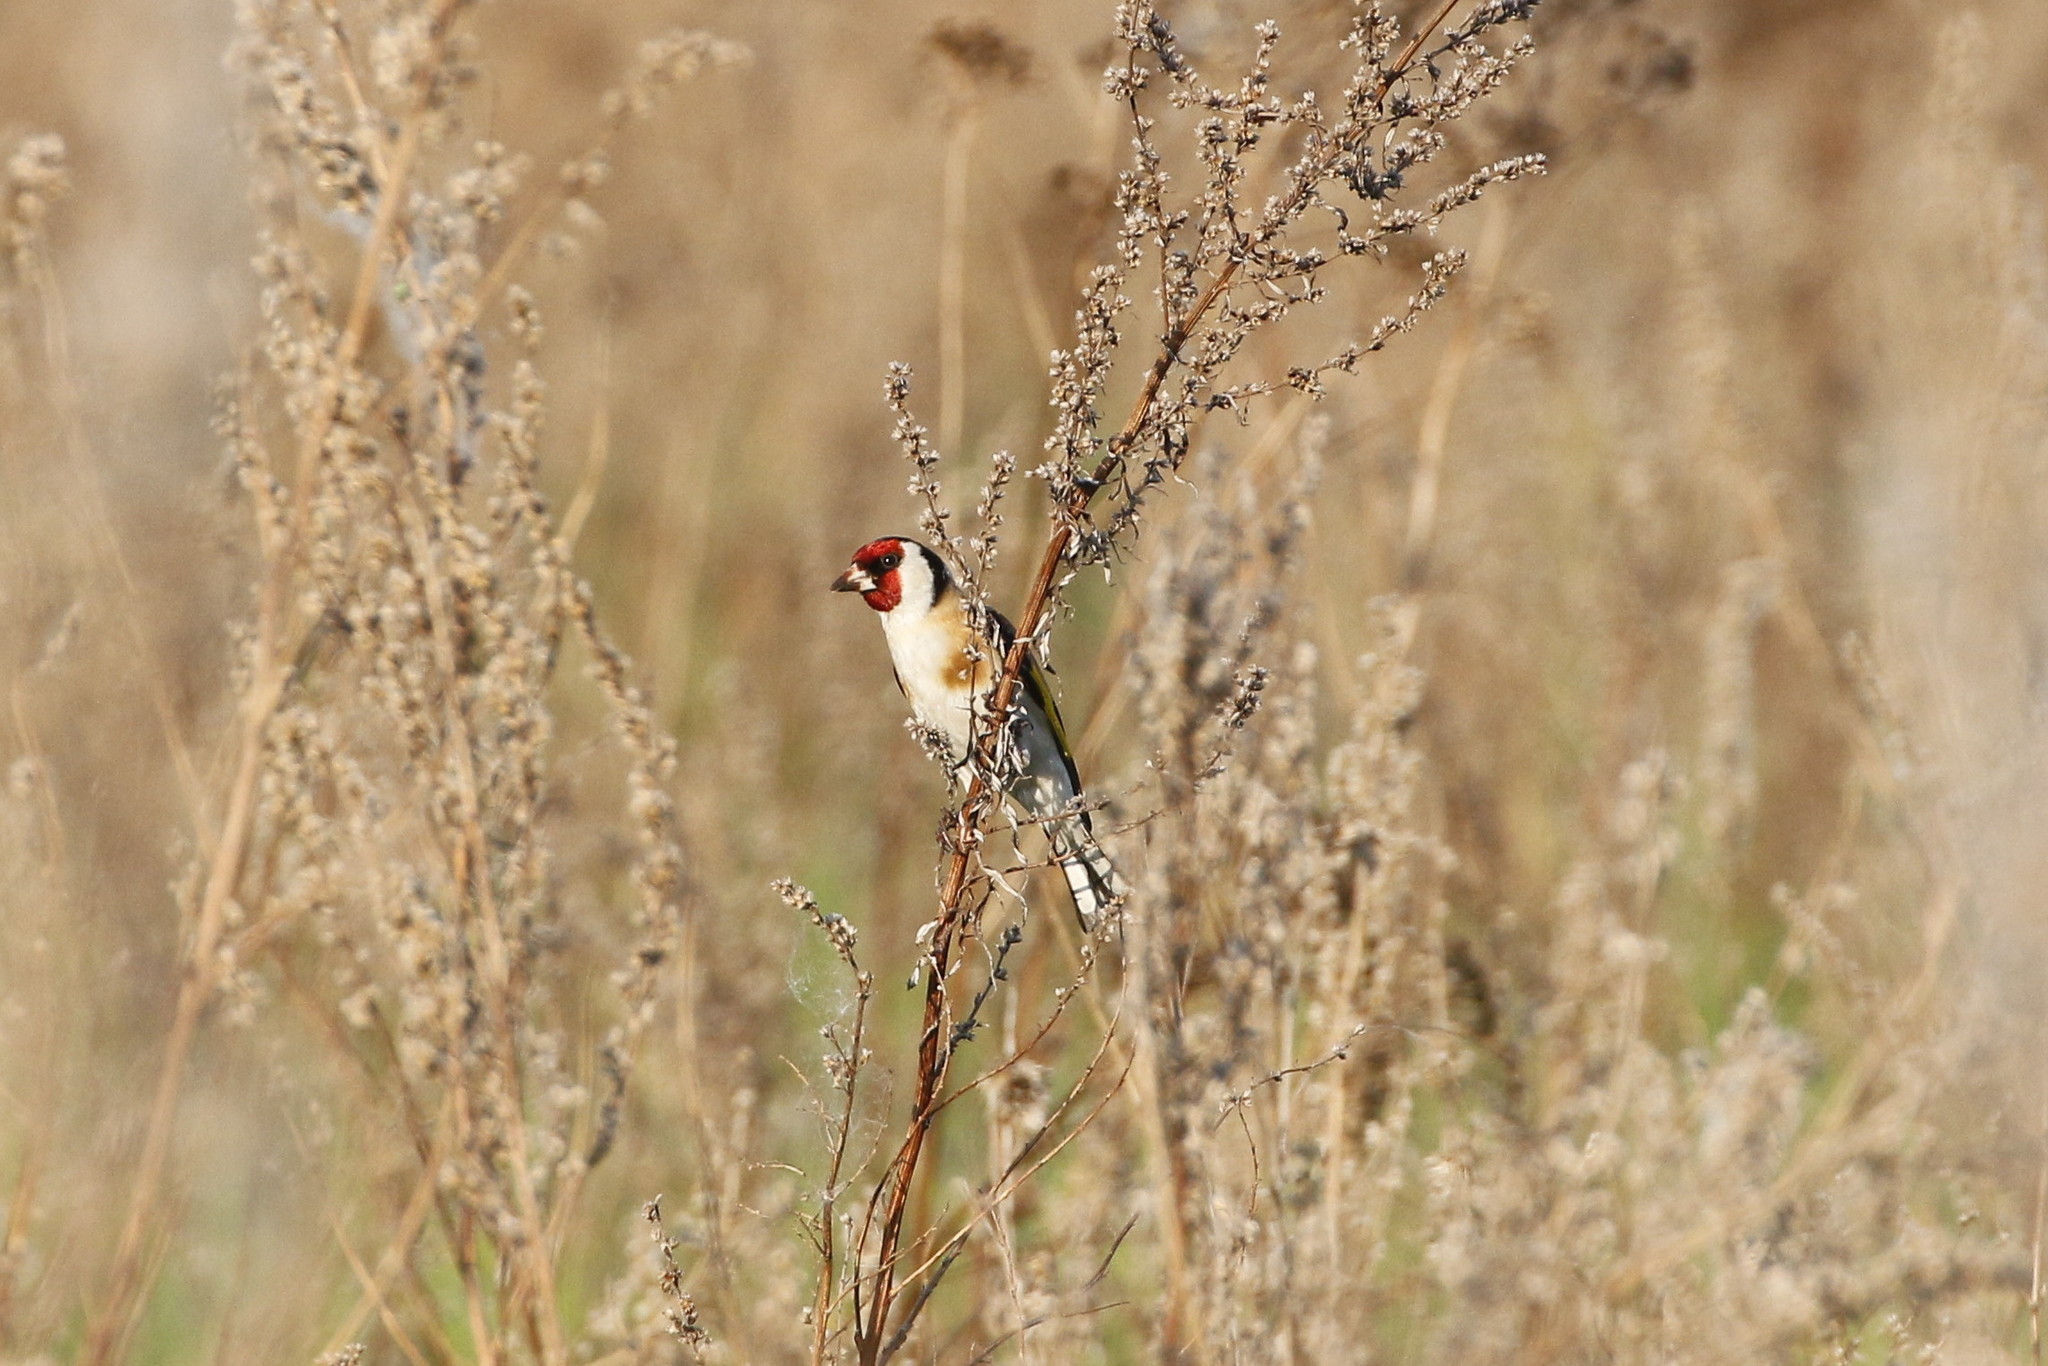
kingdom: Animalia
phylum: Chordata
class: Aves
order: Passeriformes
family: Fringillidae
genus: Carduelis
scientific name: Carduelis carduelis
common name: European goldfinch
